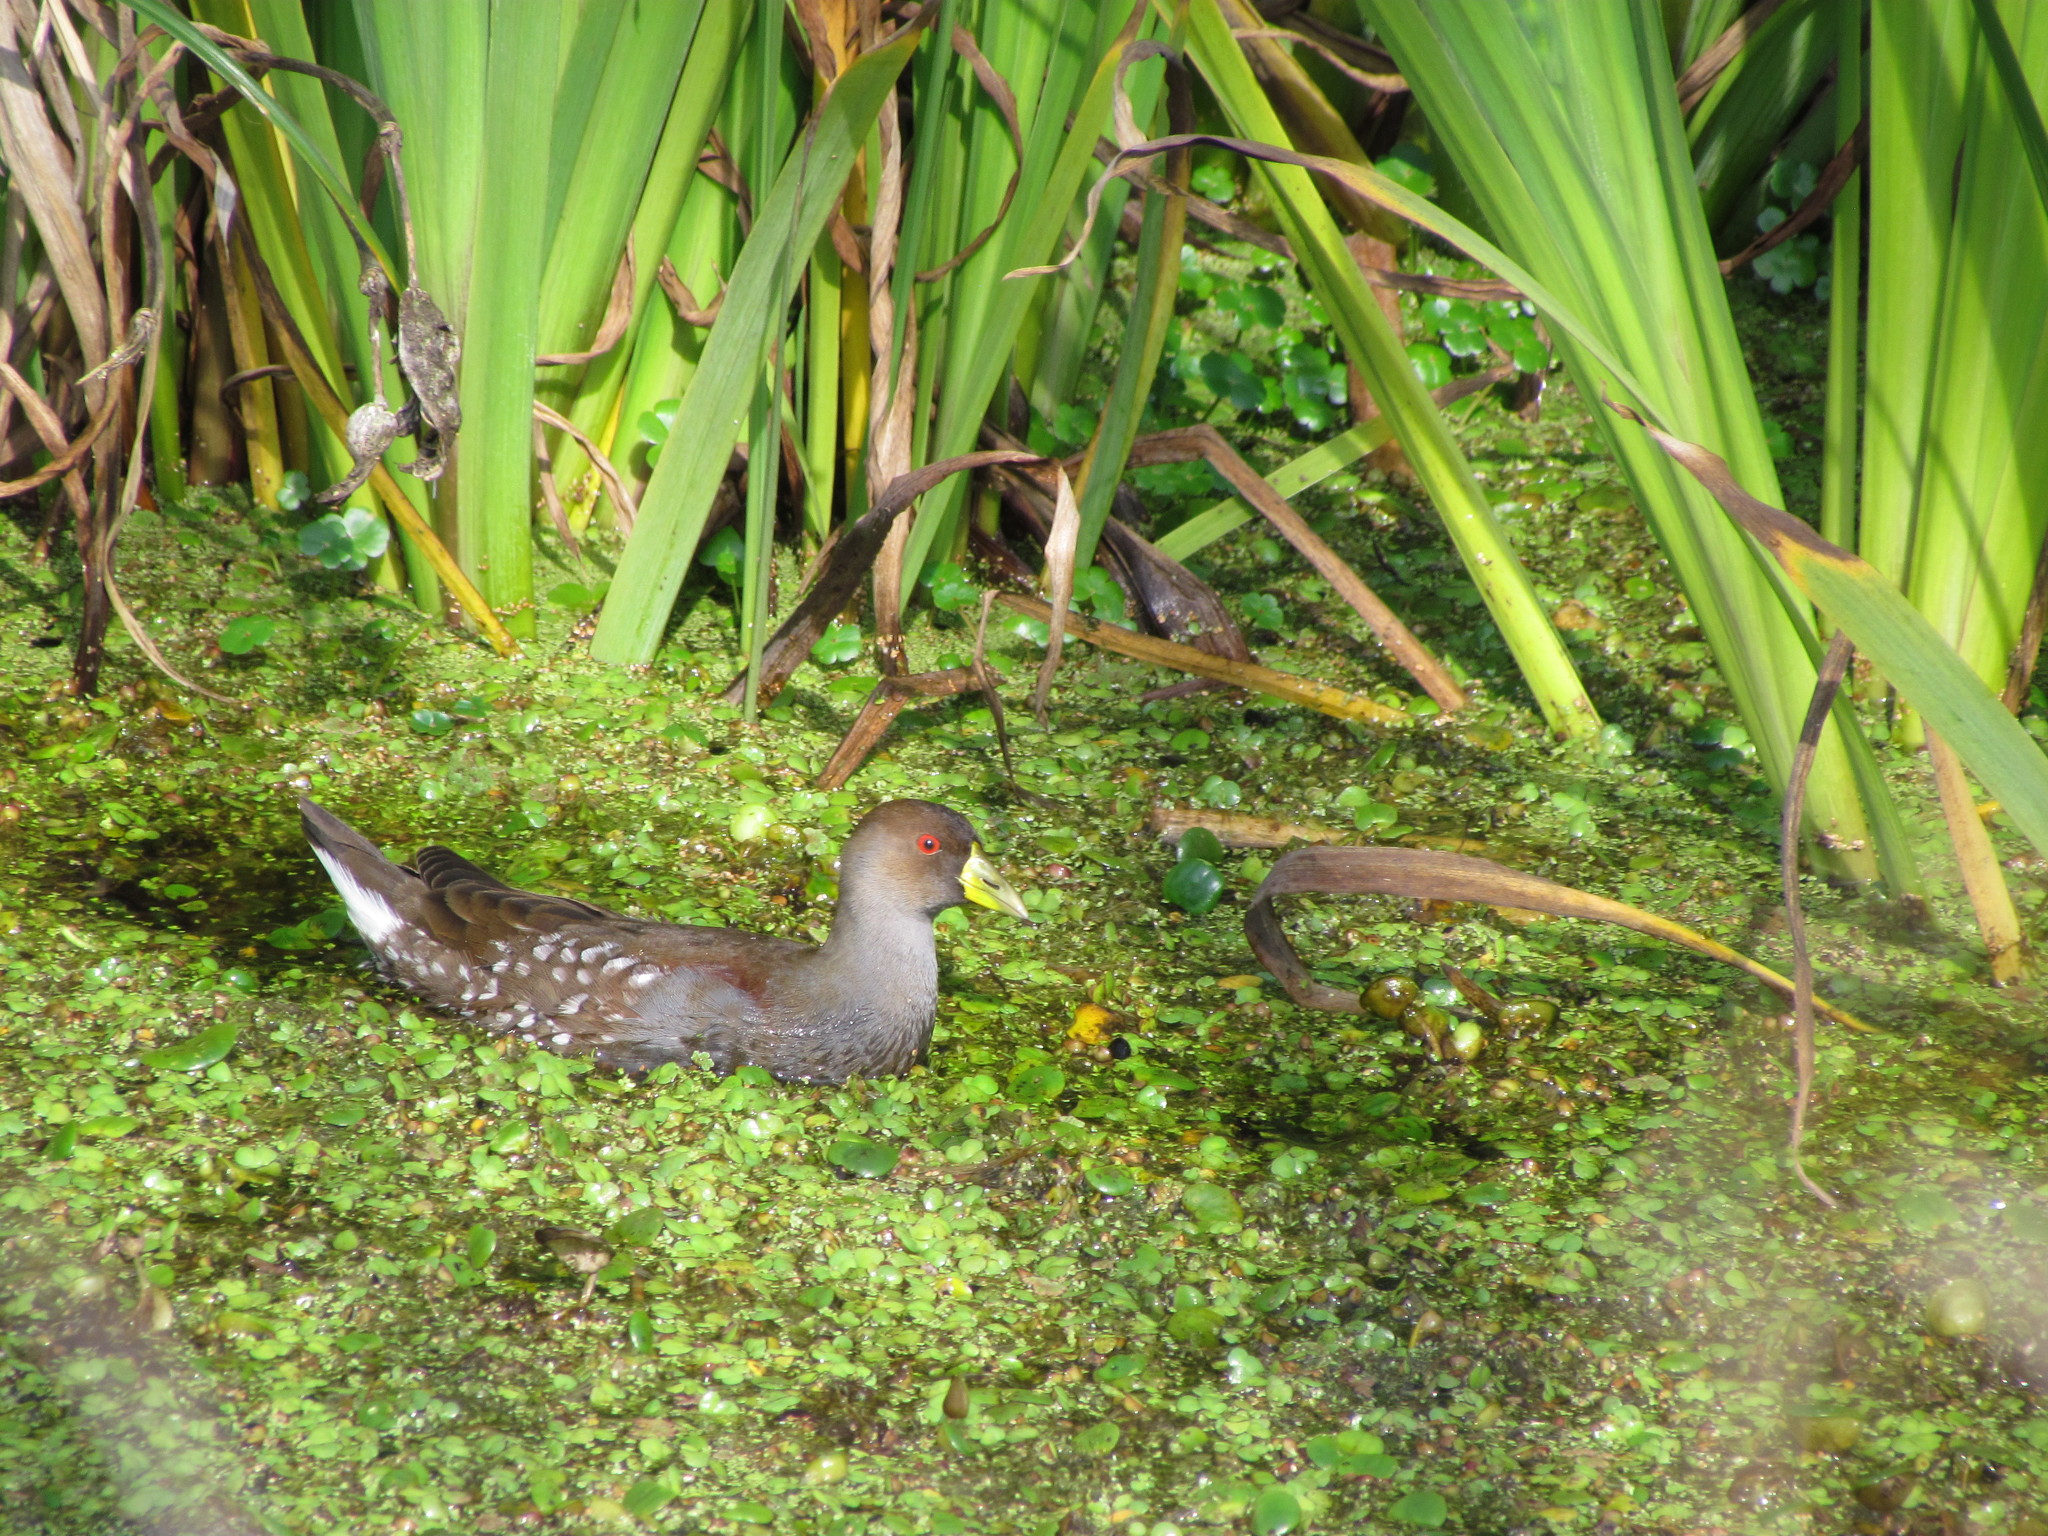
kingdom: Animalia
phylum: Chordata
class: Aves
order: Gruiformes
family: Rallidae
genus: Gallinula
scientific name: Gallinula melanops
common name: Spot-flanked gallinule
